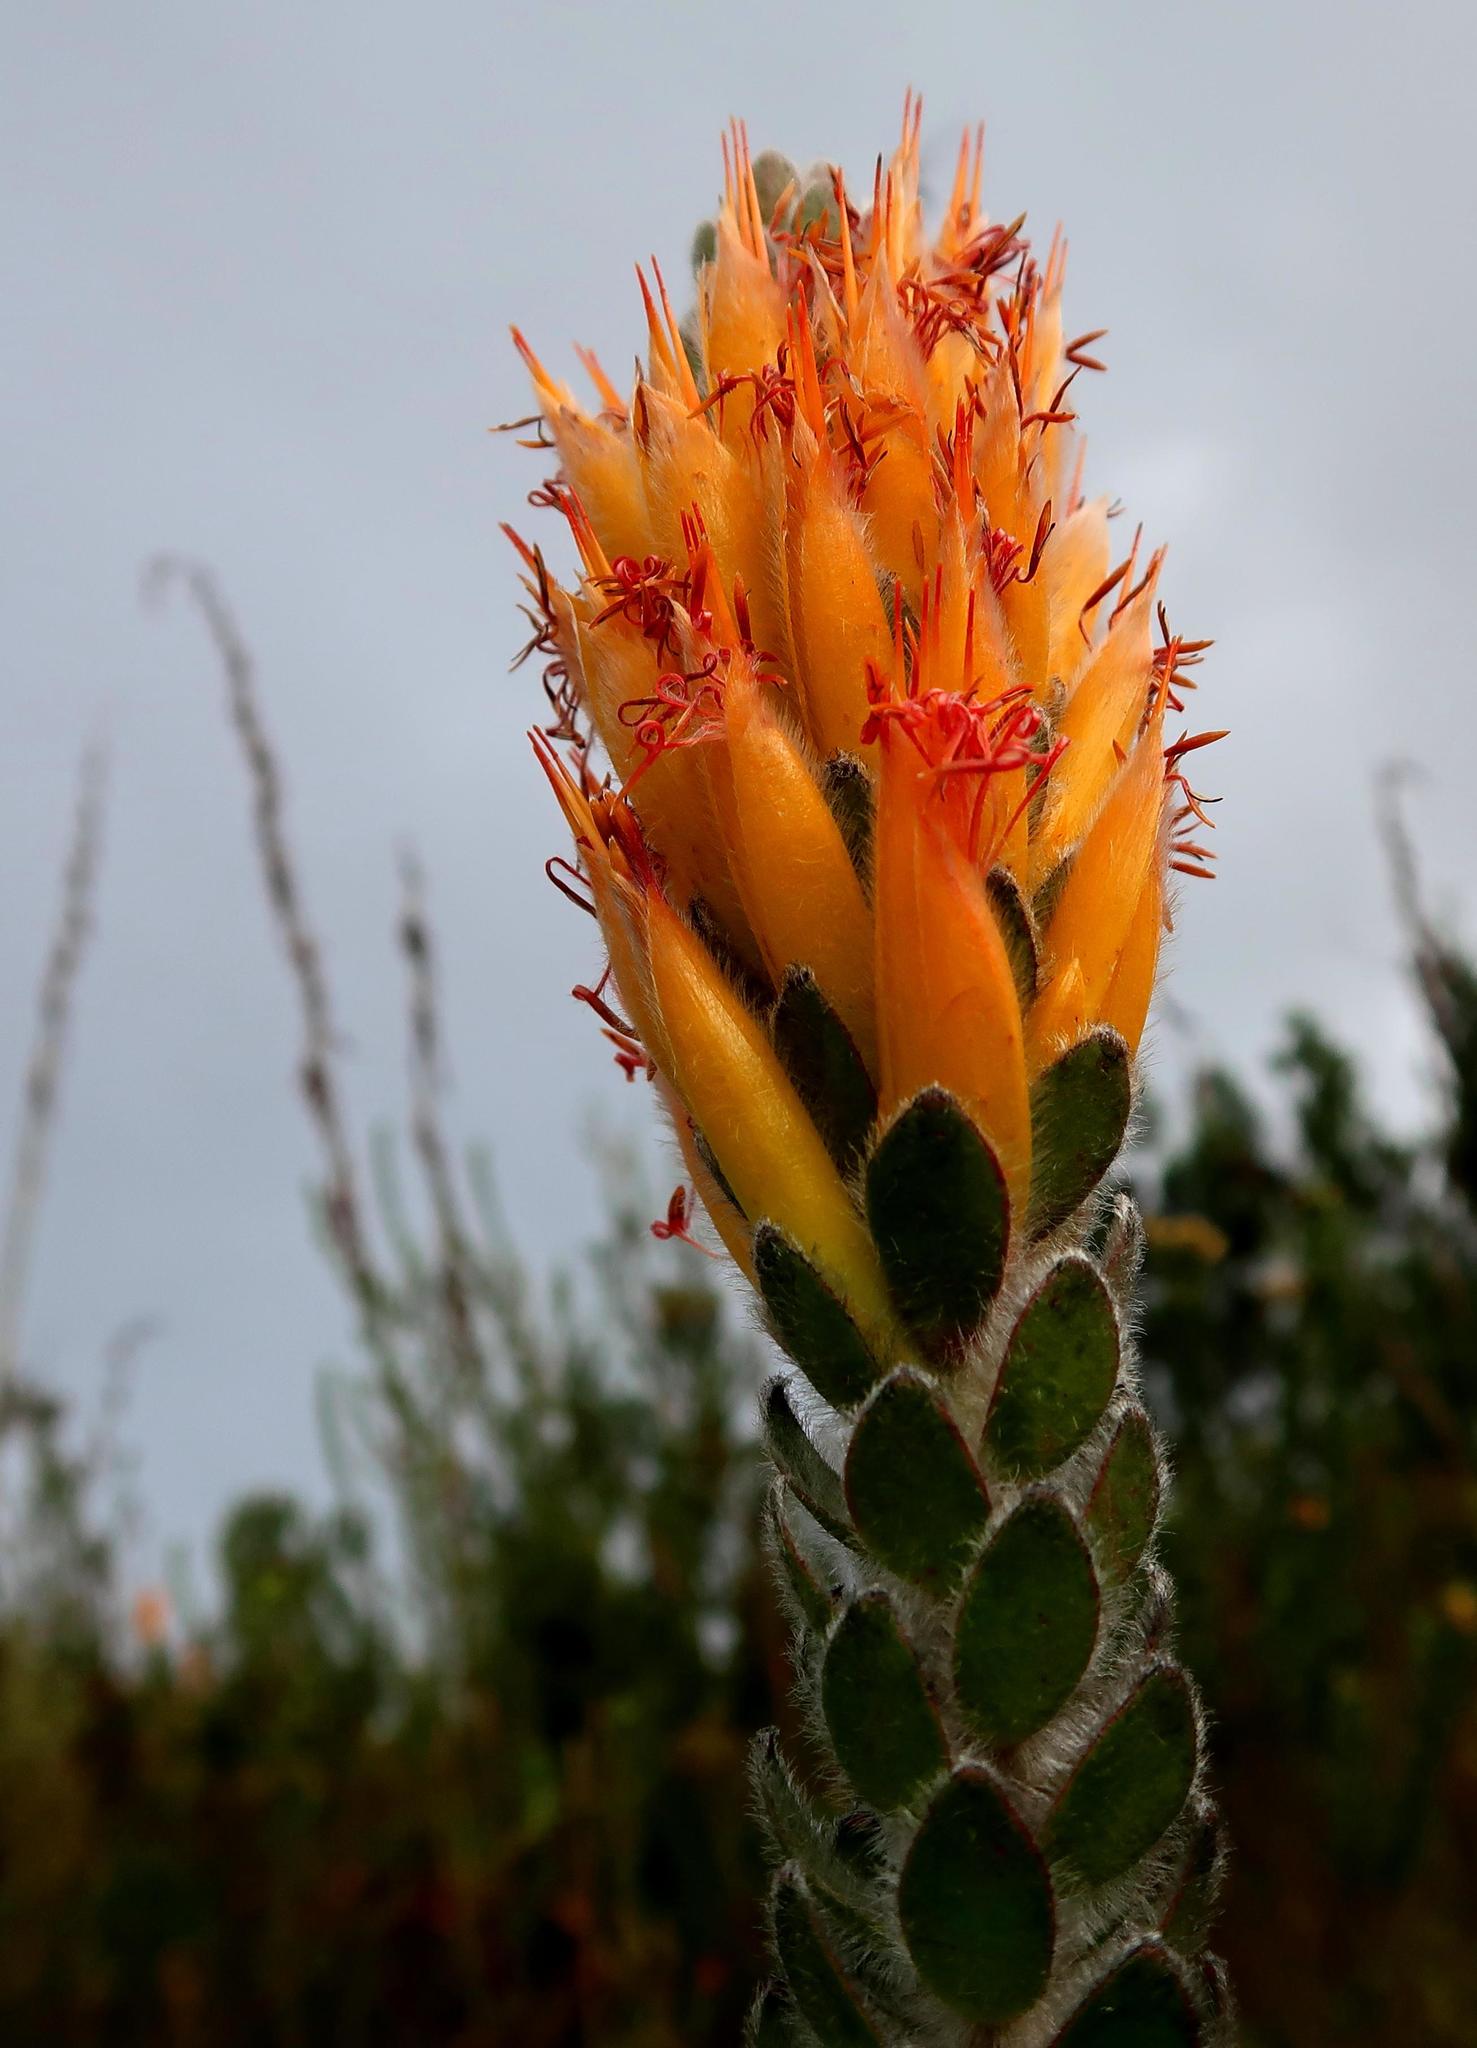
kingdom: Plantae
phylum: Tracheophyta
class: Magnoliopsida
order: Proteales
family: Proteaceae
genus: Mimetes
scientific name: Mimetes pauciflora
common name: Three-flowered pagoda
